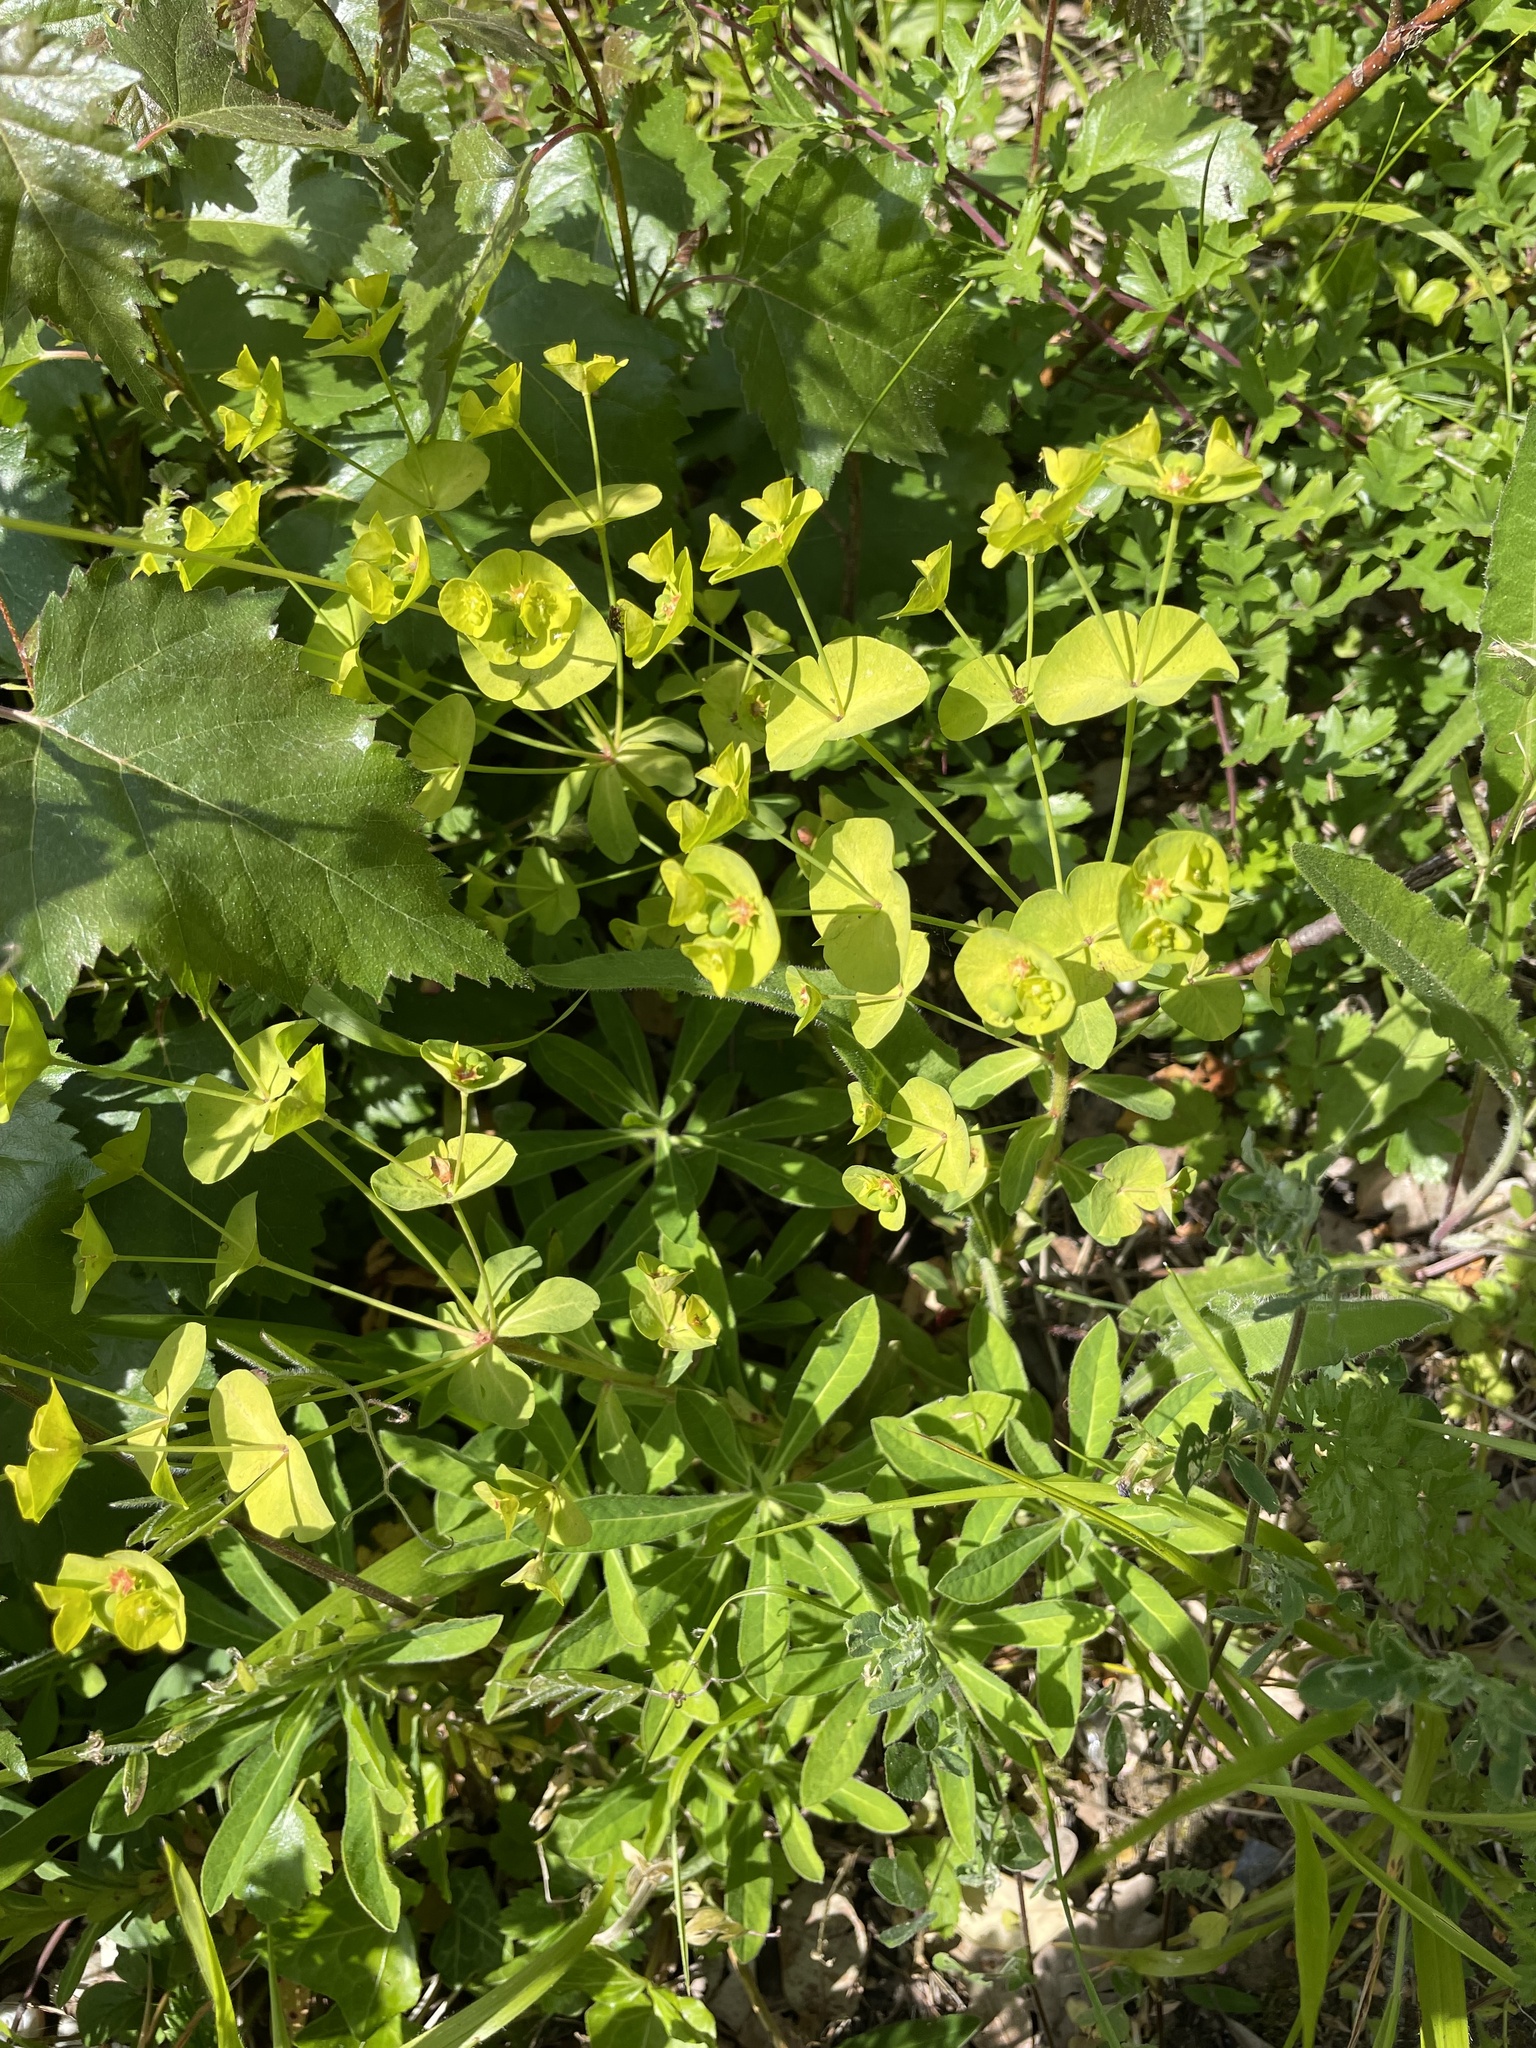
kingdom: Plantae
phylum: Tracheophyta
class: Magnoliopsida
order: Malpighiales
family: Euphorbiaceae
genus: Euphorbia
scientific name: Euphorbia amygdaloides
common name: Wood spurge
